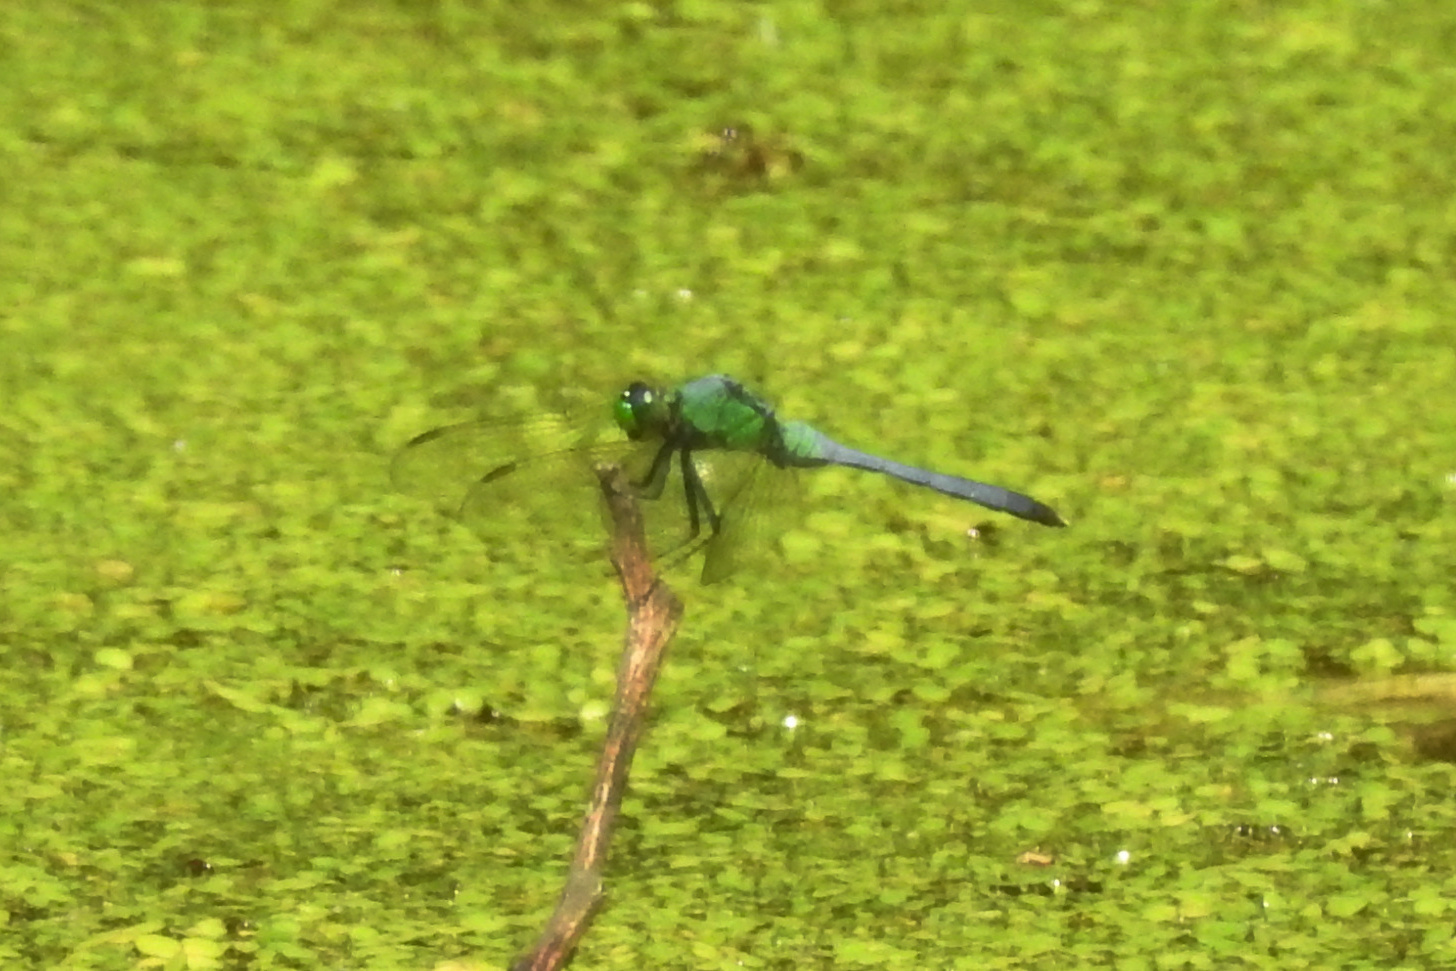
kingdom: Animalia
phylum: Arthropoda
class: Insecta
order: Odonata
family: Libellulidae
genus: Erythemis
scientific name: Erythemis simplicicollis
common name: Eastern pondhawk
